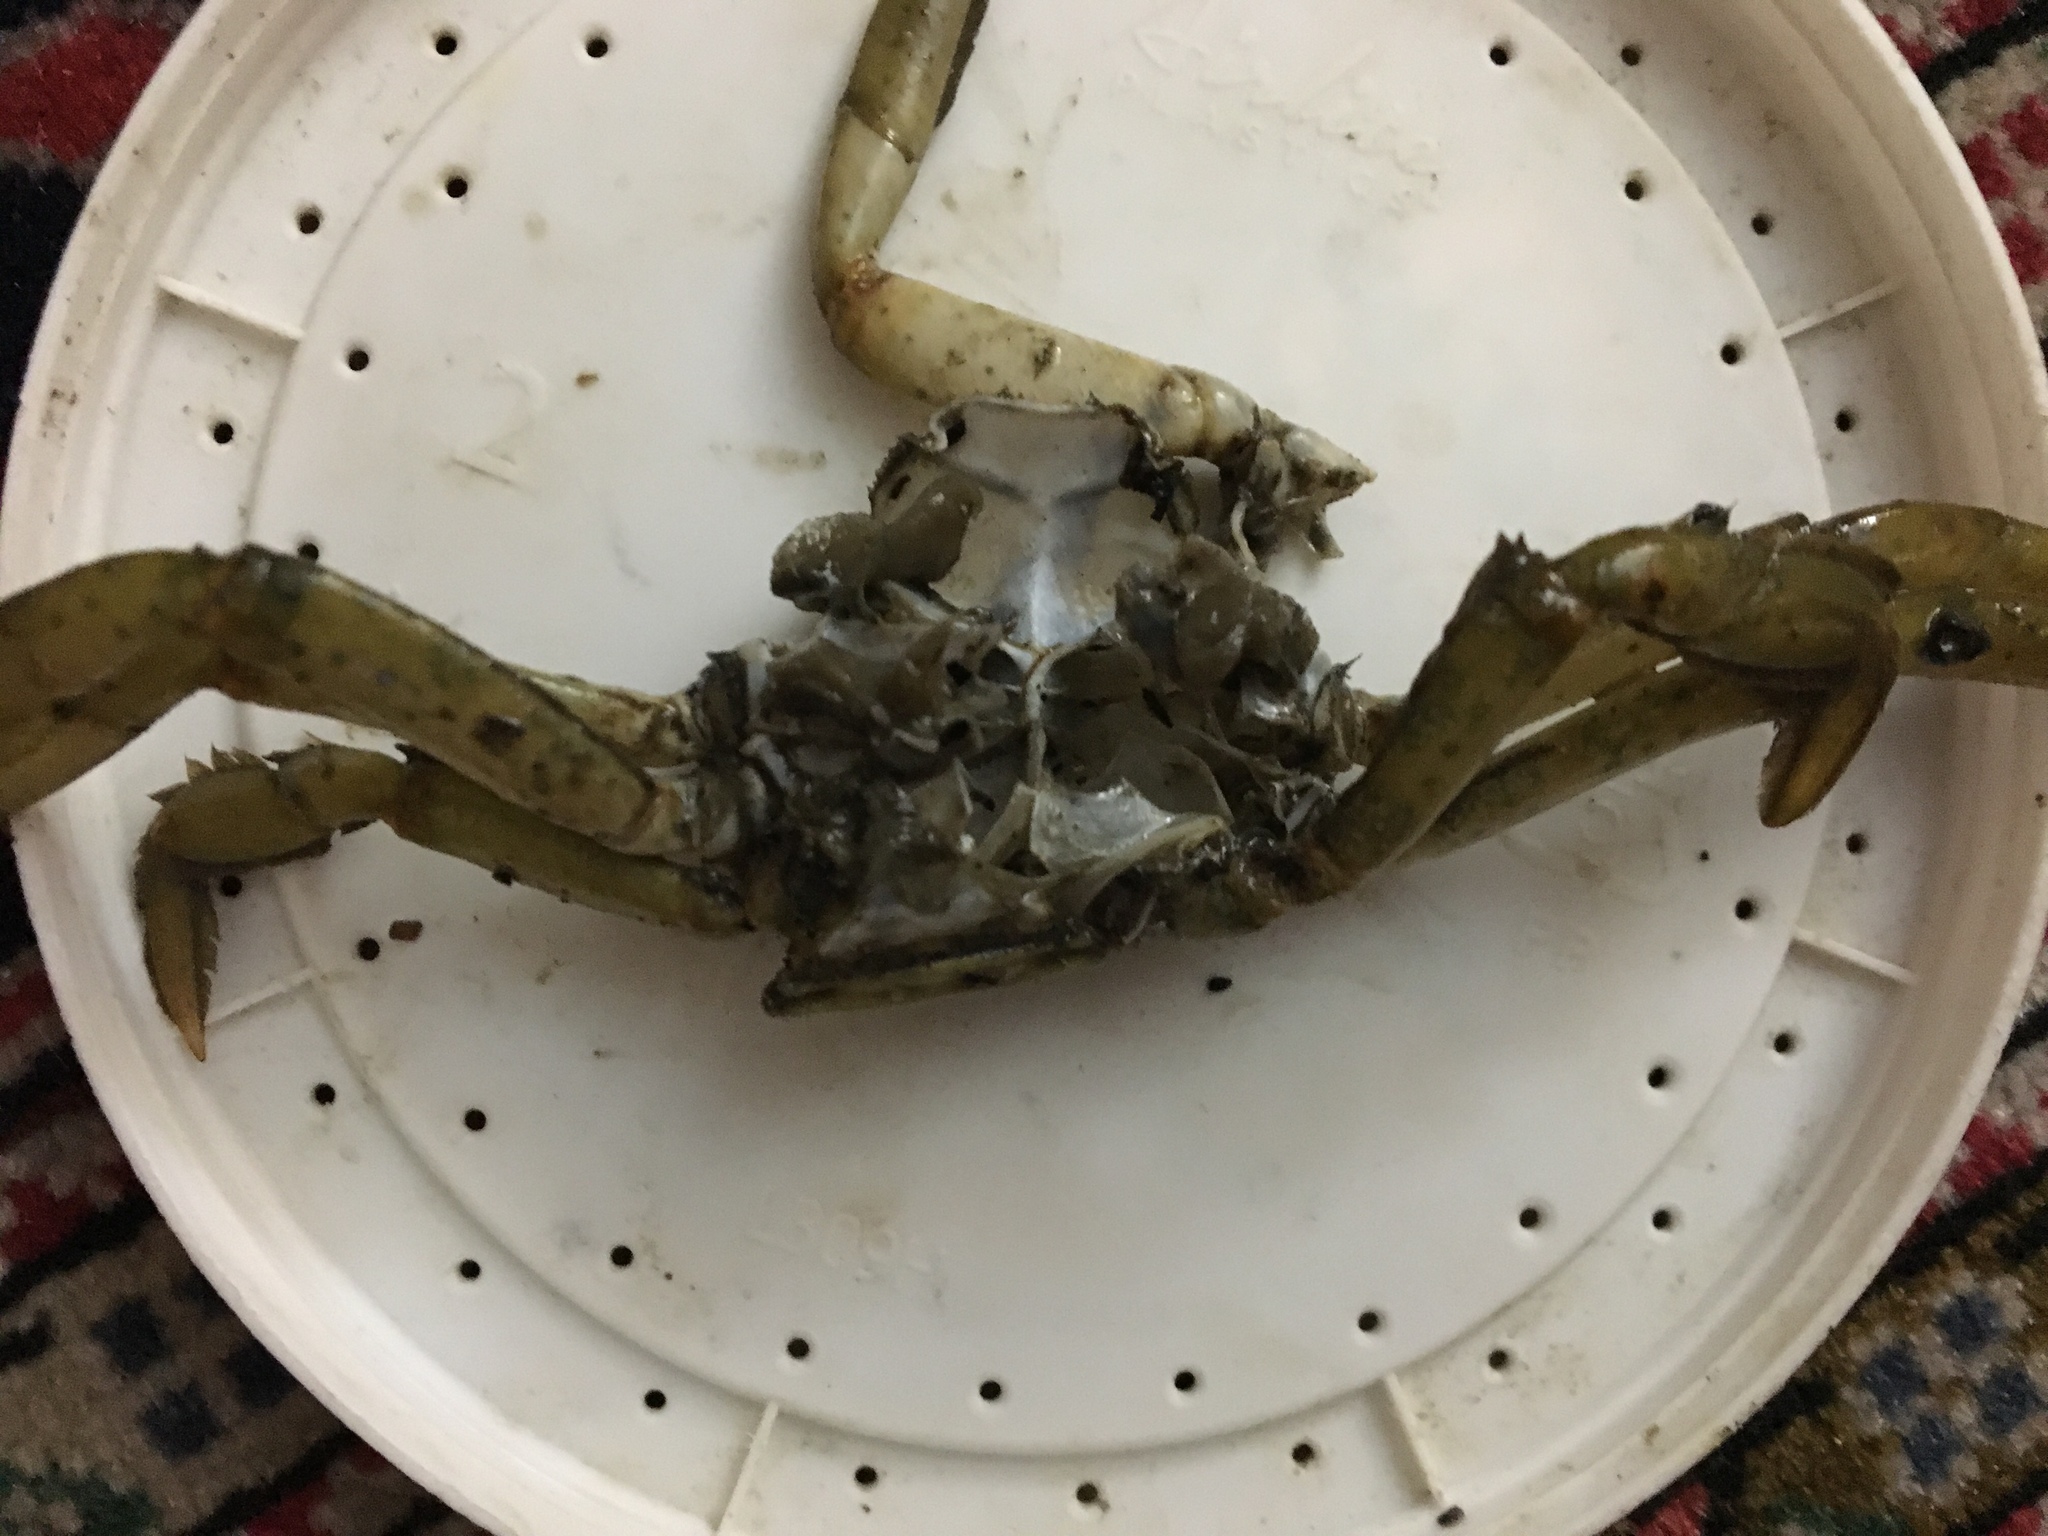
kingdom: Animalia
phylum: Arthropoda
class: Malacostraca
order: Decapoda
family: Carcinidae
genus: Carcinus
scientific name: Carcinus maenas
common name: European green crab
